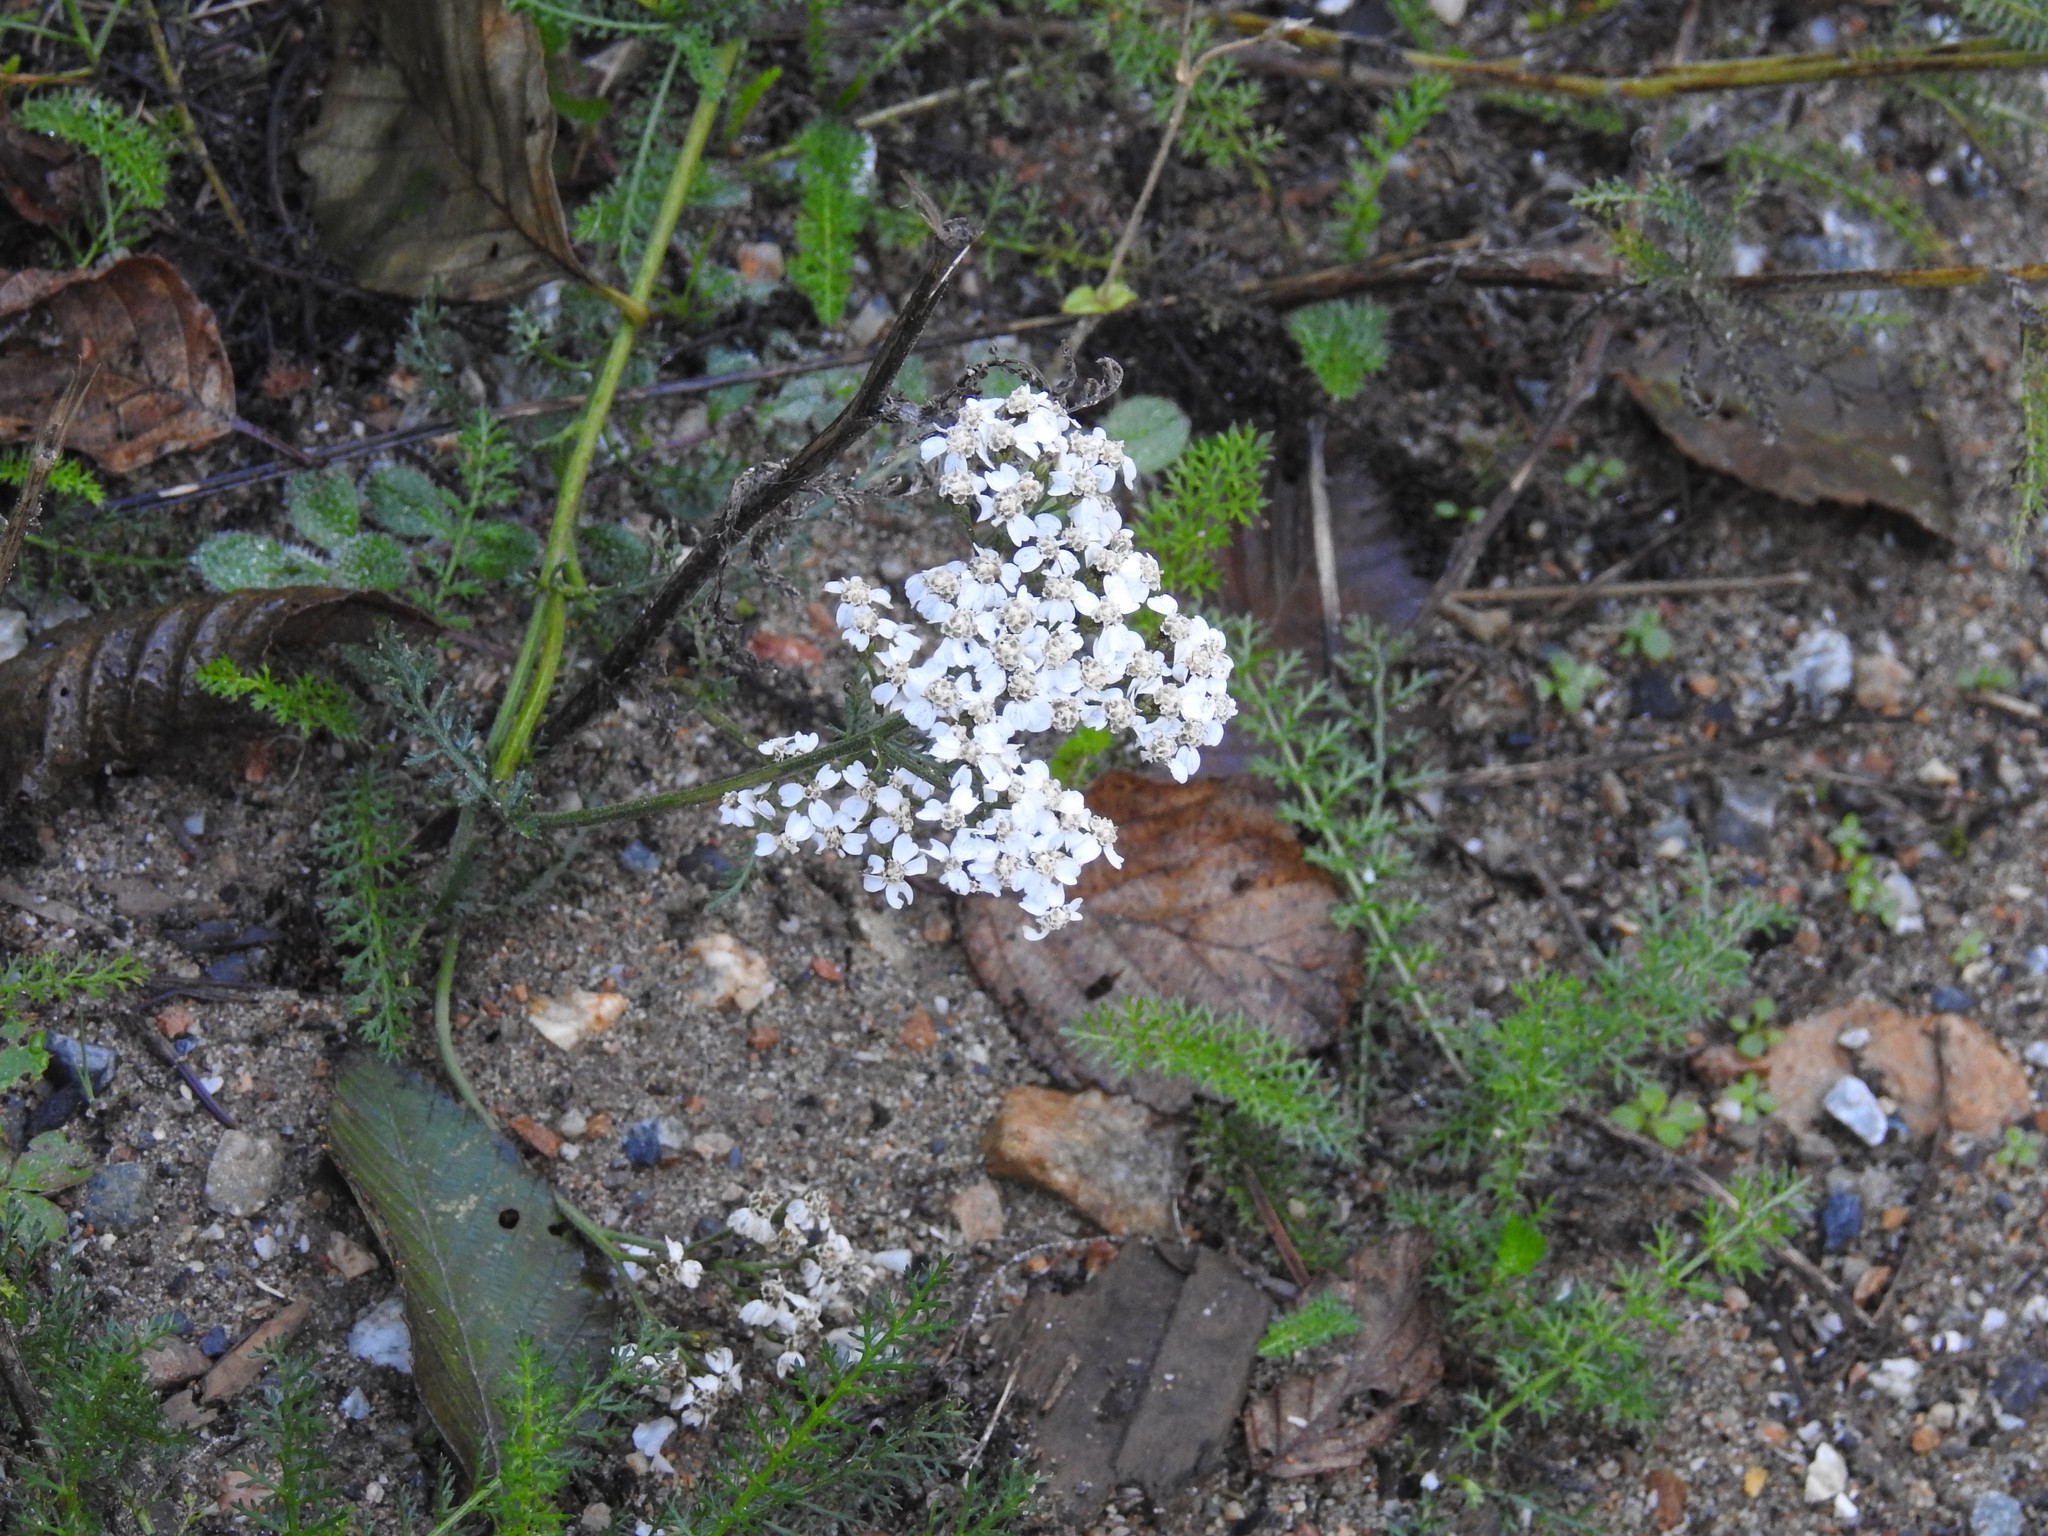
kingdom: Plantae
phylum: Tracheophyta
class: Magnoliopsida
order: Asterales
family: Asteraceae
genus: Achillea
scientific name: Achillea millefolium
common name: Yarrow
